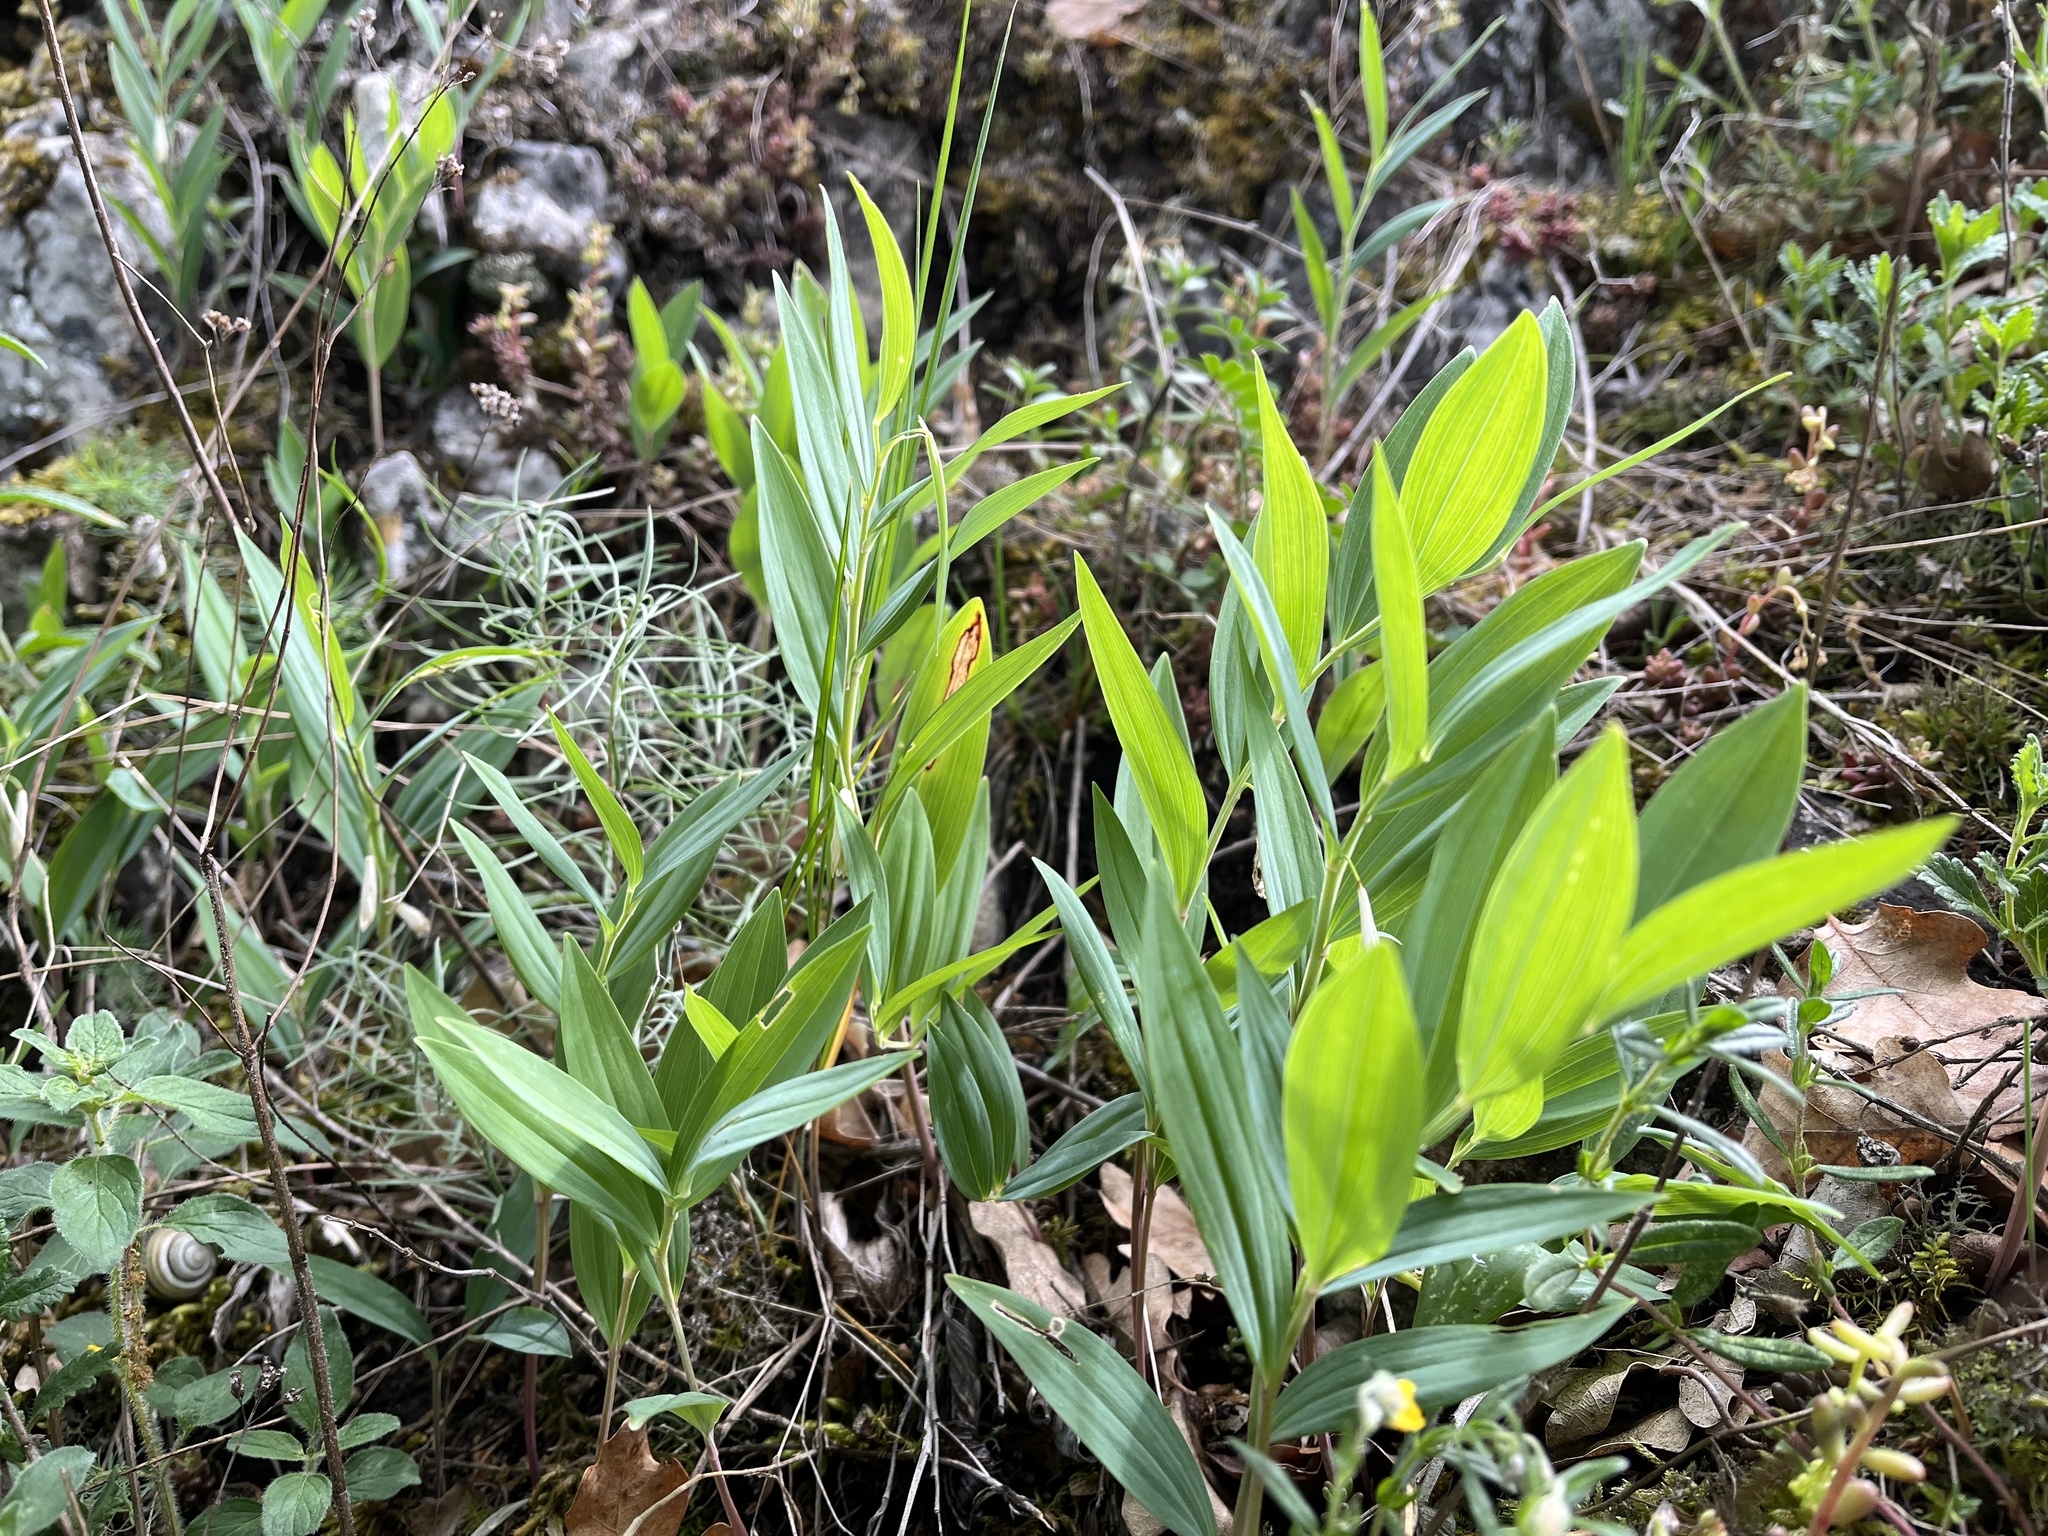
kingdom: Plantae
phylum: Tracheophyta
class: Liliopsida
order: Asparagales
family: Asparagaceae
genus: Polygonatum
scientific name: Polygonatum odoratum
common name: Angular solomon's-seal
